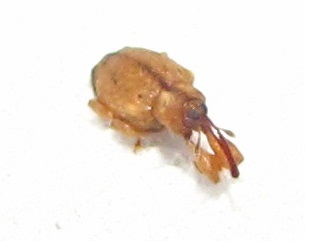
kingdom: Animalia
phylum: Arthropoda
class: Insecta
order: Coleoptera
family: Curculionidae
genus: Ochyromera
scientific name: Ochyromera ligustri
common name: Weevil
